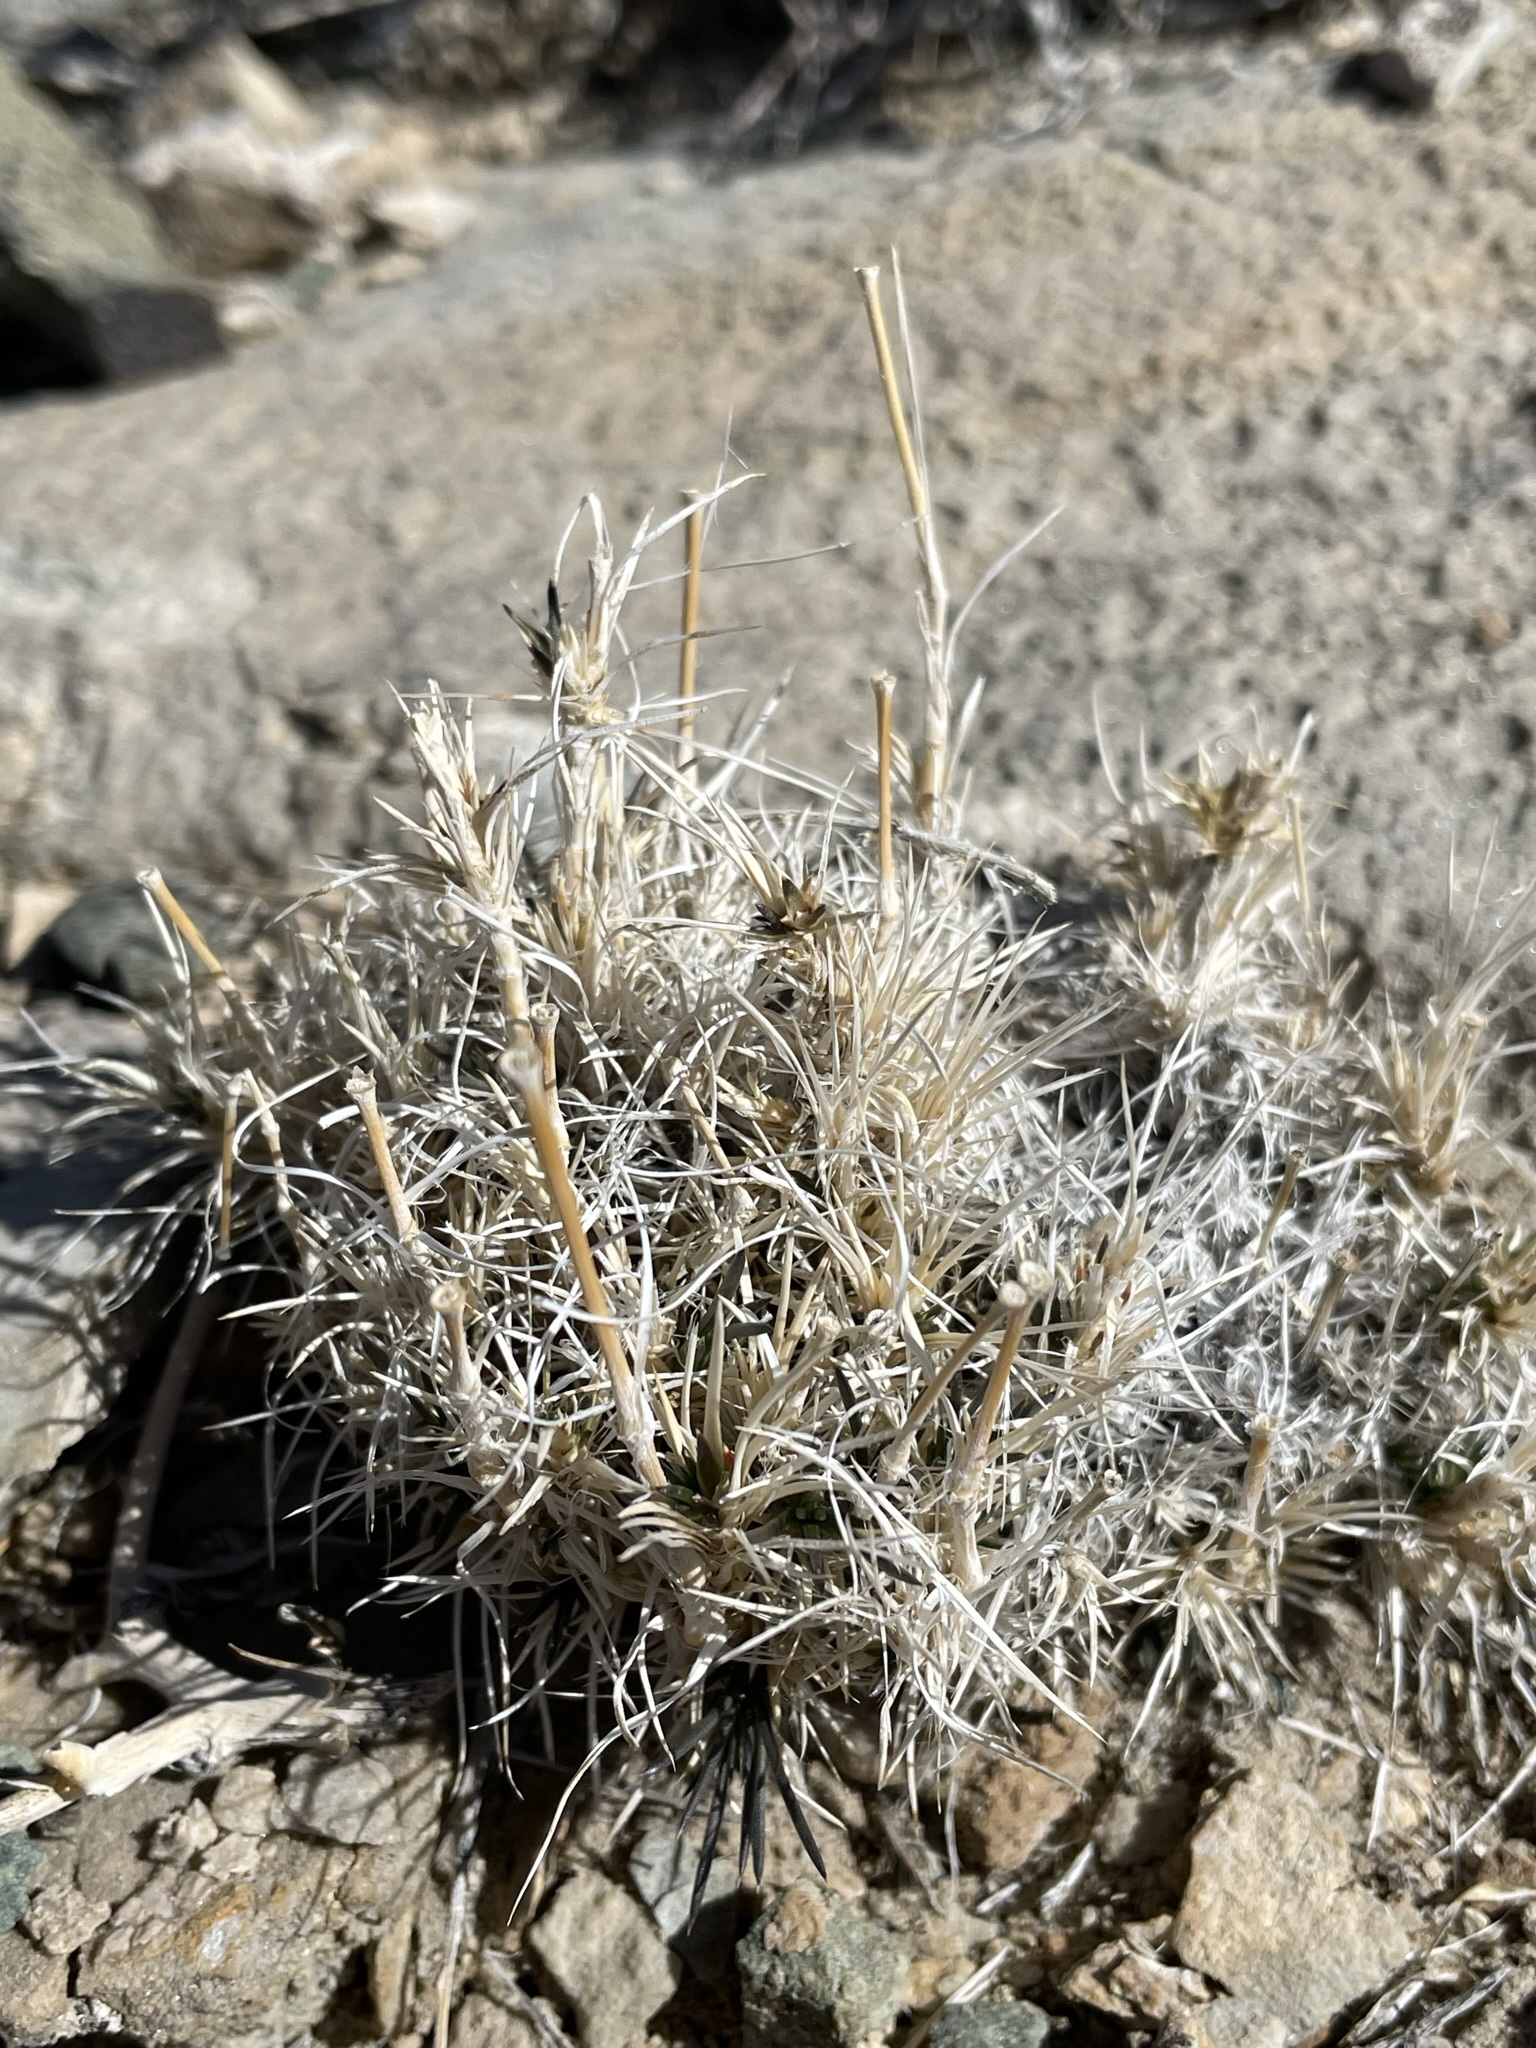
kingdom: Plantae
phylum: Tracheophyta
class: Magnoliopsida
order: Caryophyllales
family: Caryophyllaceae
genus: Eremogone
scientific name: Eremogone macradenia
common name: Mohave sandwort
